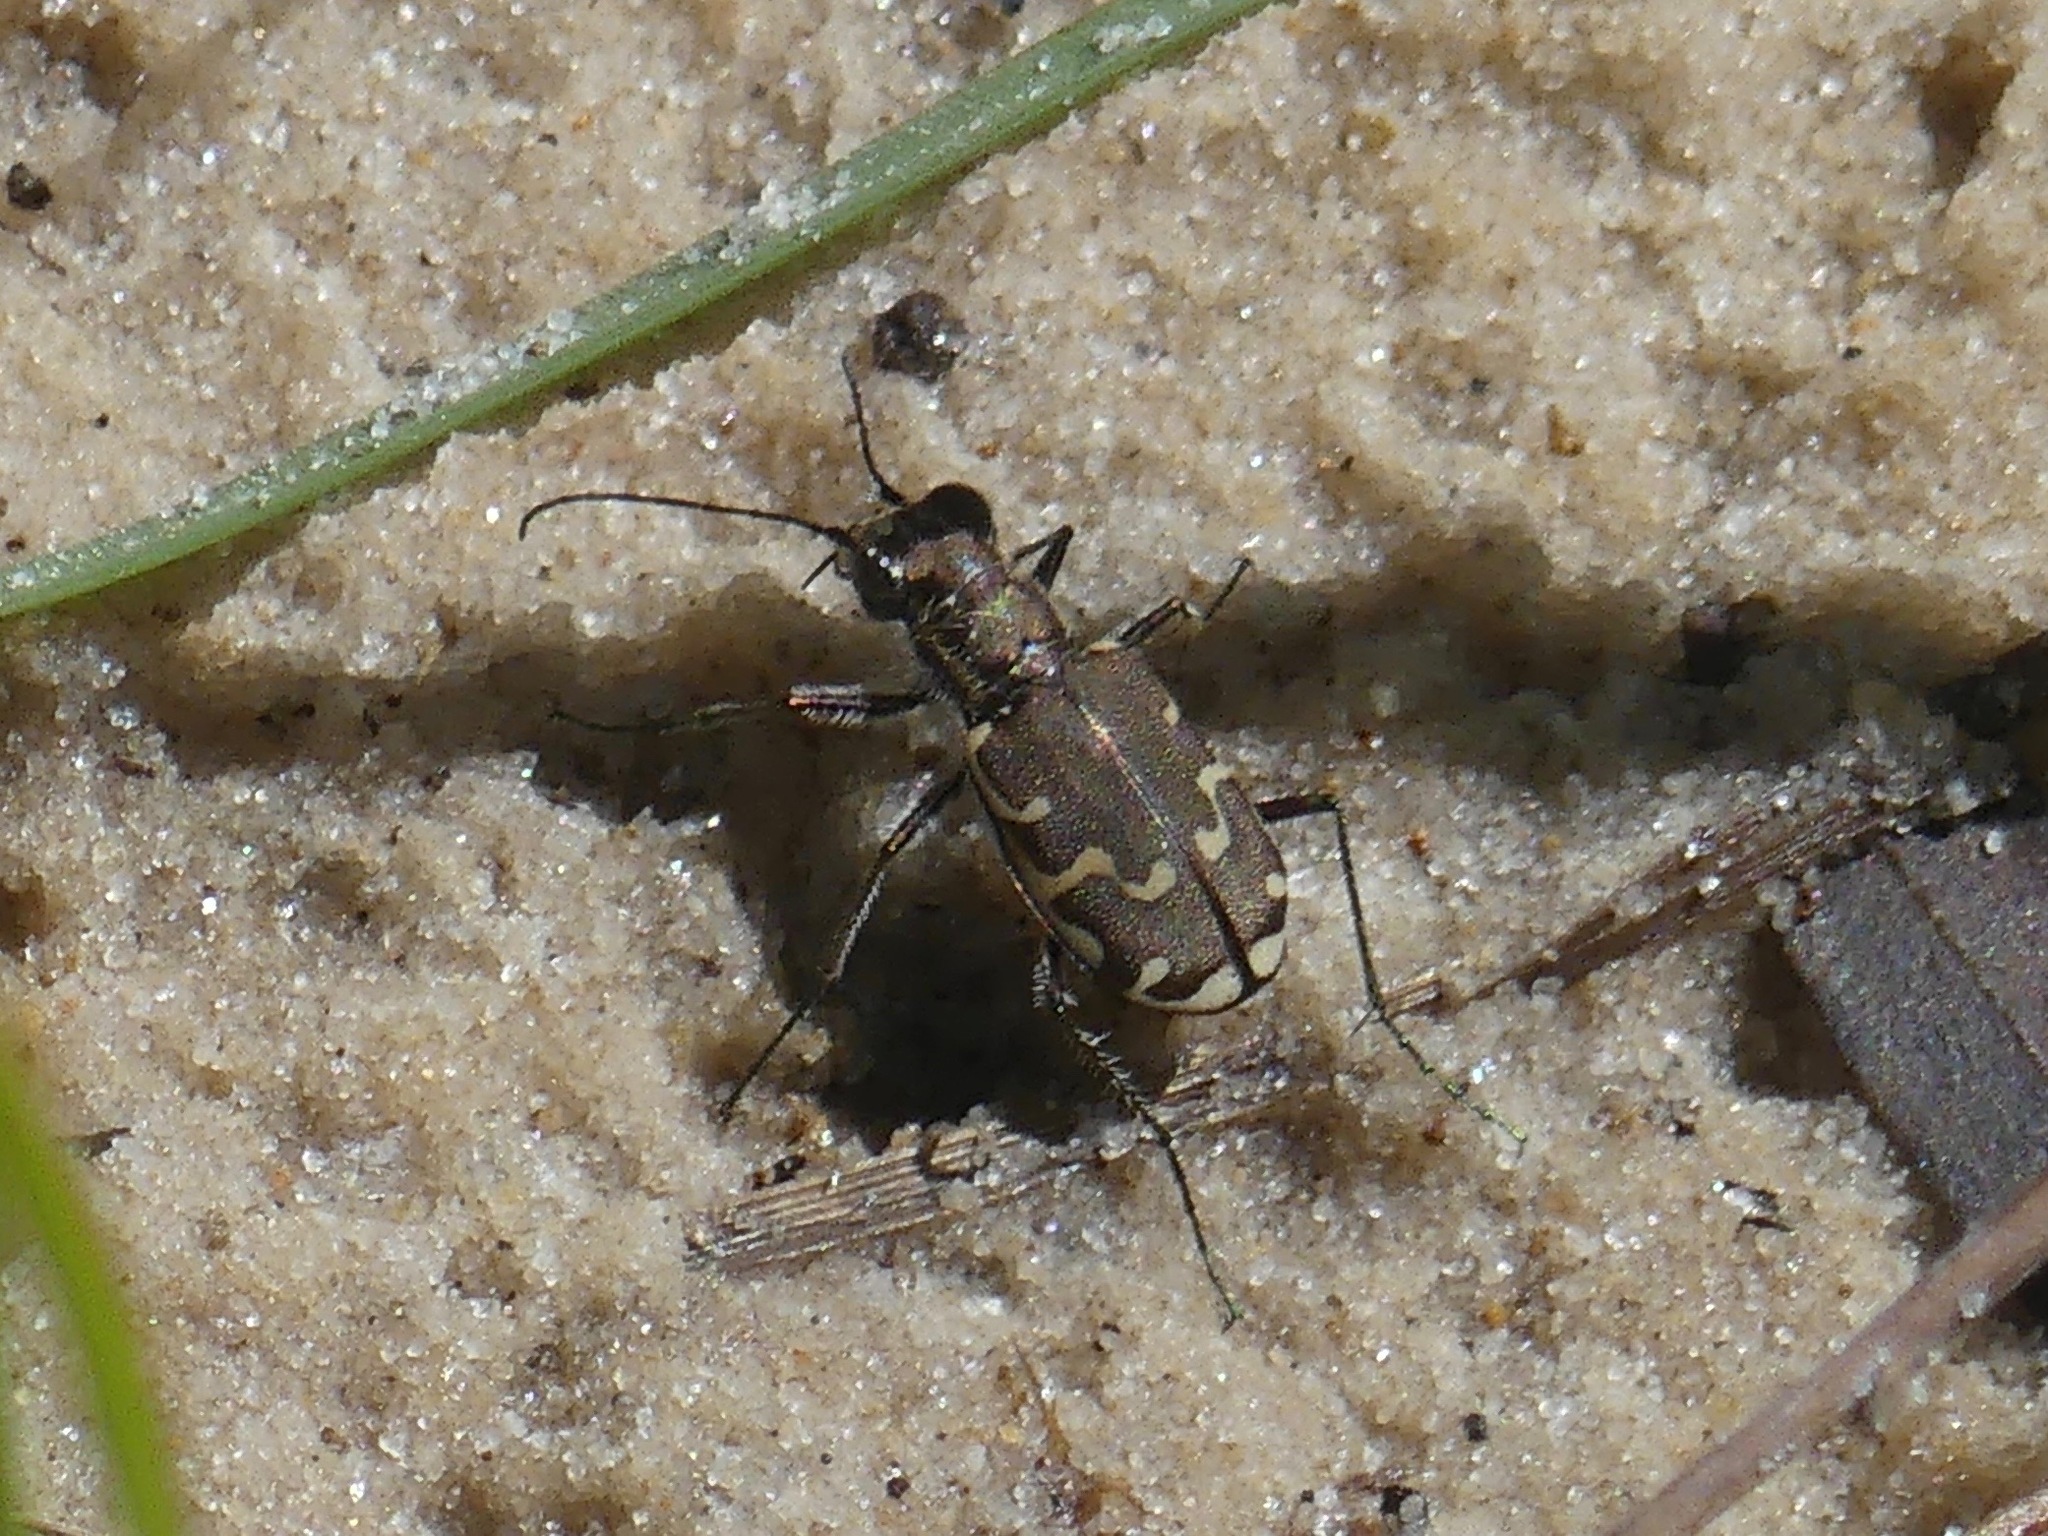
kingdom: Animalia
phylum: Arthropoda
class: Insecta
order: Coleoptera
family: Carabidae
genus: Cicindela
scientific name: Cicindela repanda
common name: Bronzed tiger beetle
